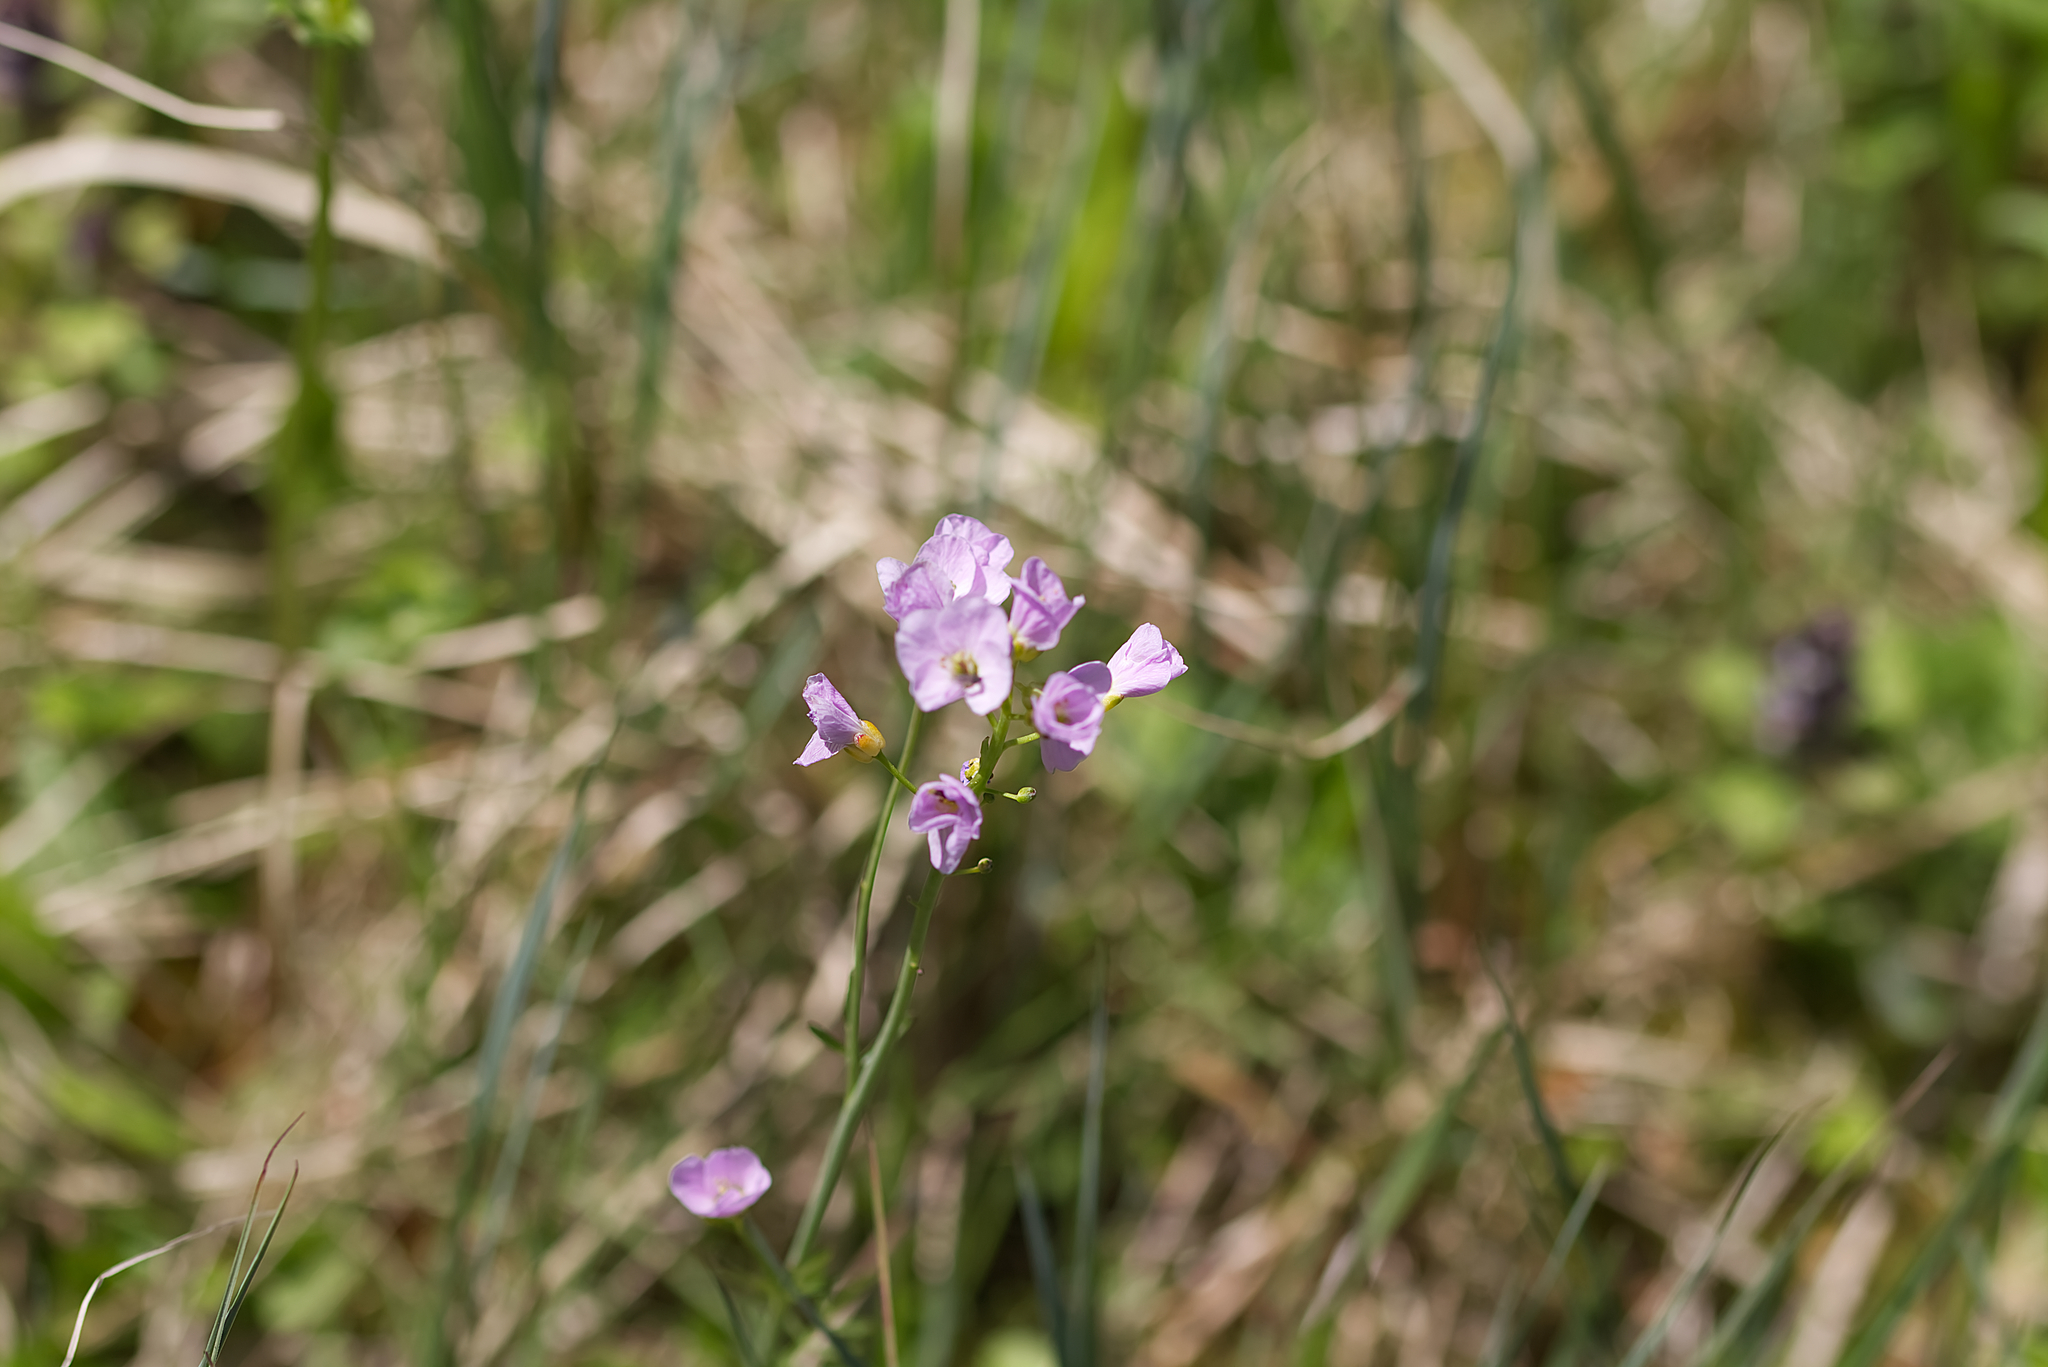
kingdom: Plantae
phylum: Tracheophyta
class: Magnoliopsida
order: Brassicales
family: Brassicaceae
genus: Cardamine
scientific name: Cardamine pratensis
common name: Cuckoo flower
